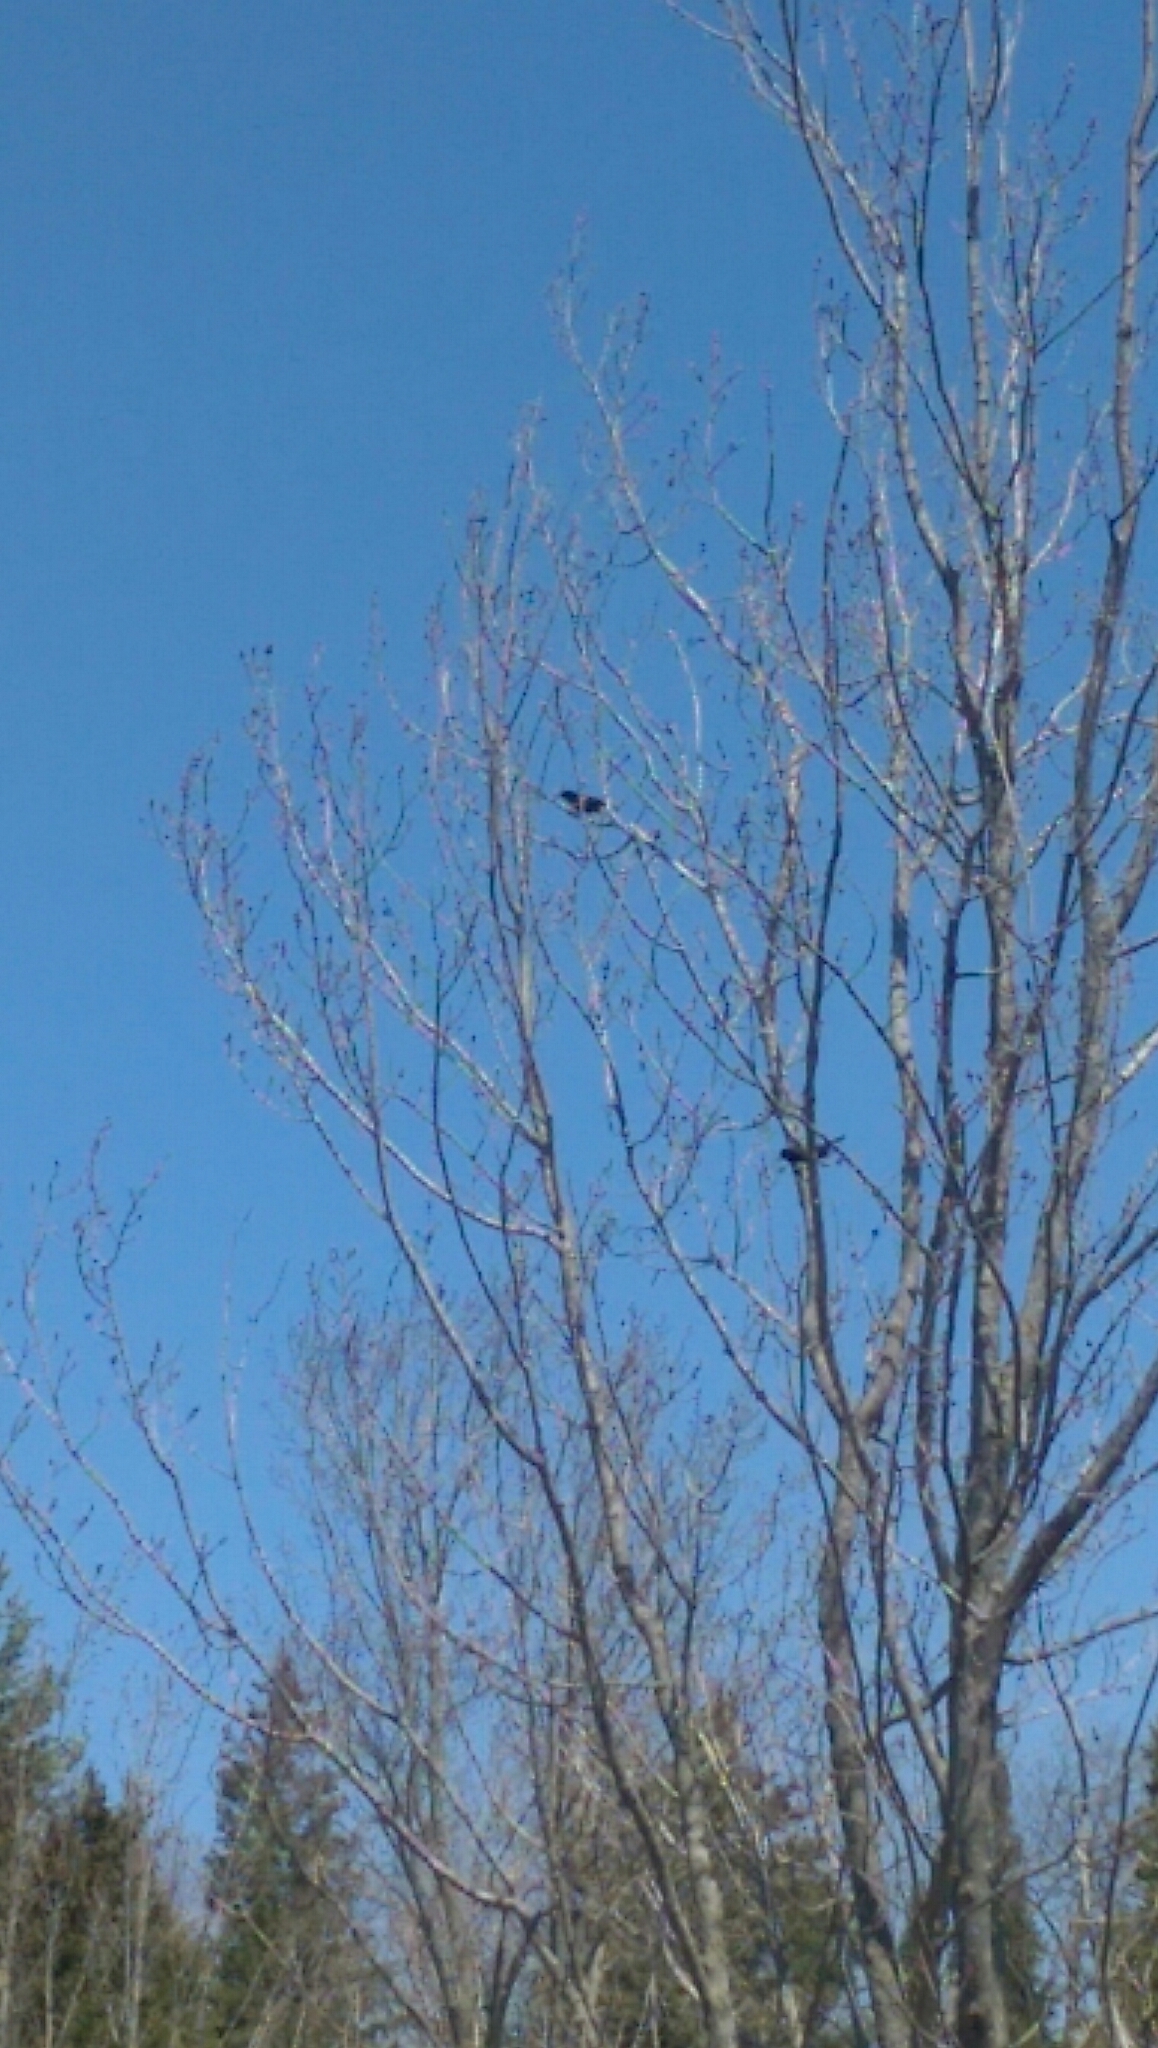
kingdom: Animalia
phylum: Chordata
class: Aves
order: Passeriformes
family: Icteridae
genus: Agelaius
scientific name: Agelaius phoeniceus
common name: Red-winged blackbird
